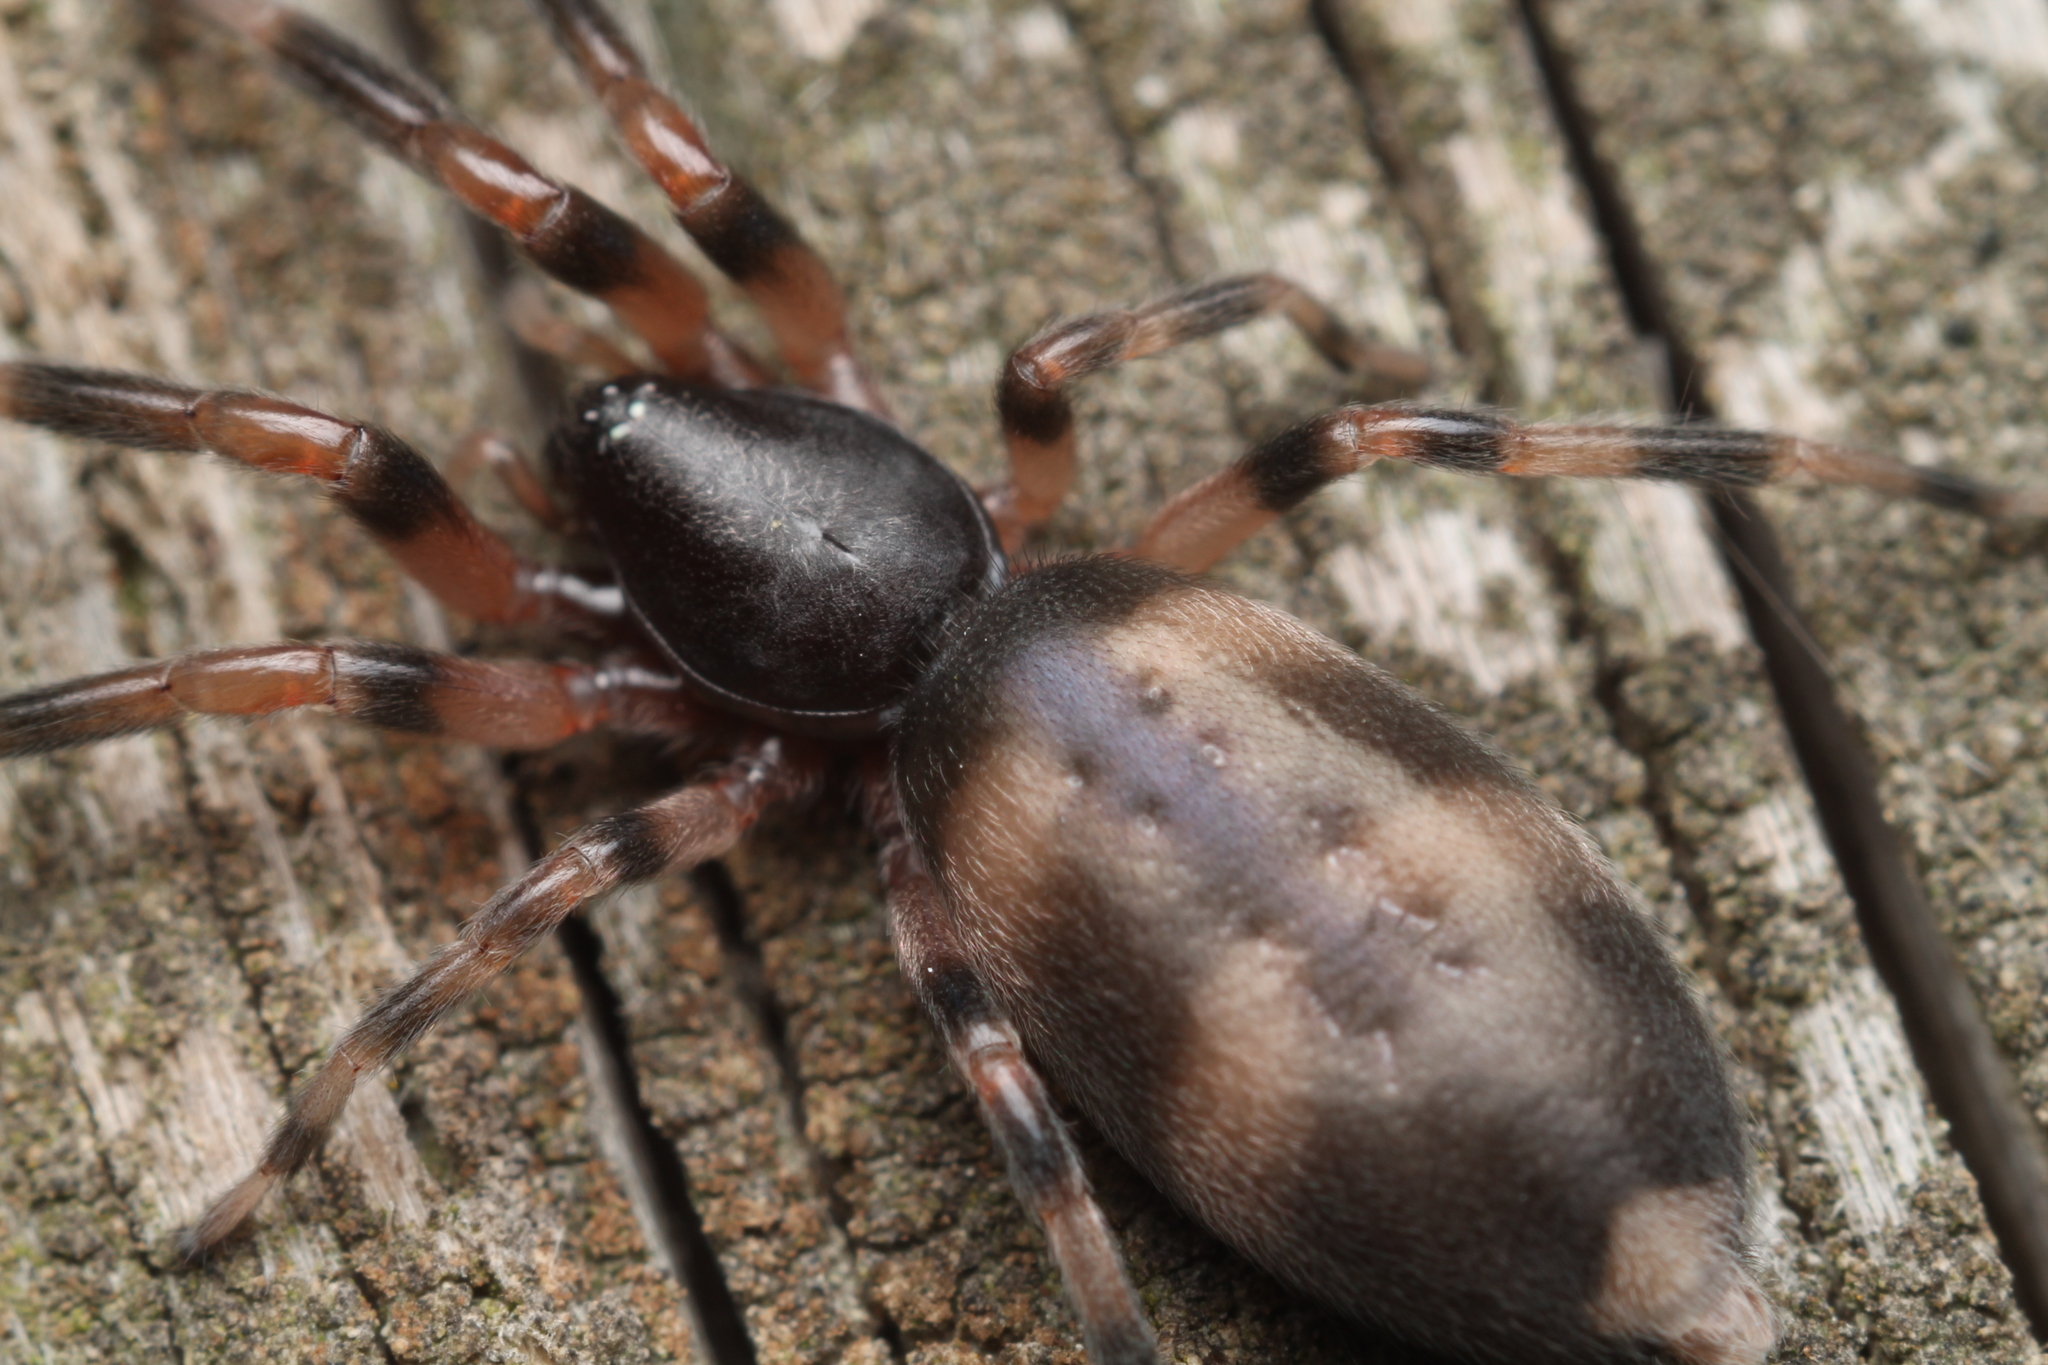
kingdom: Animalia
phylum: Arthropoda
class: Arachnida
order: Araneae
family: Lamponidae
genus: Lampona
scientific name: Lampona murina
